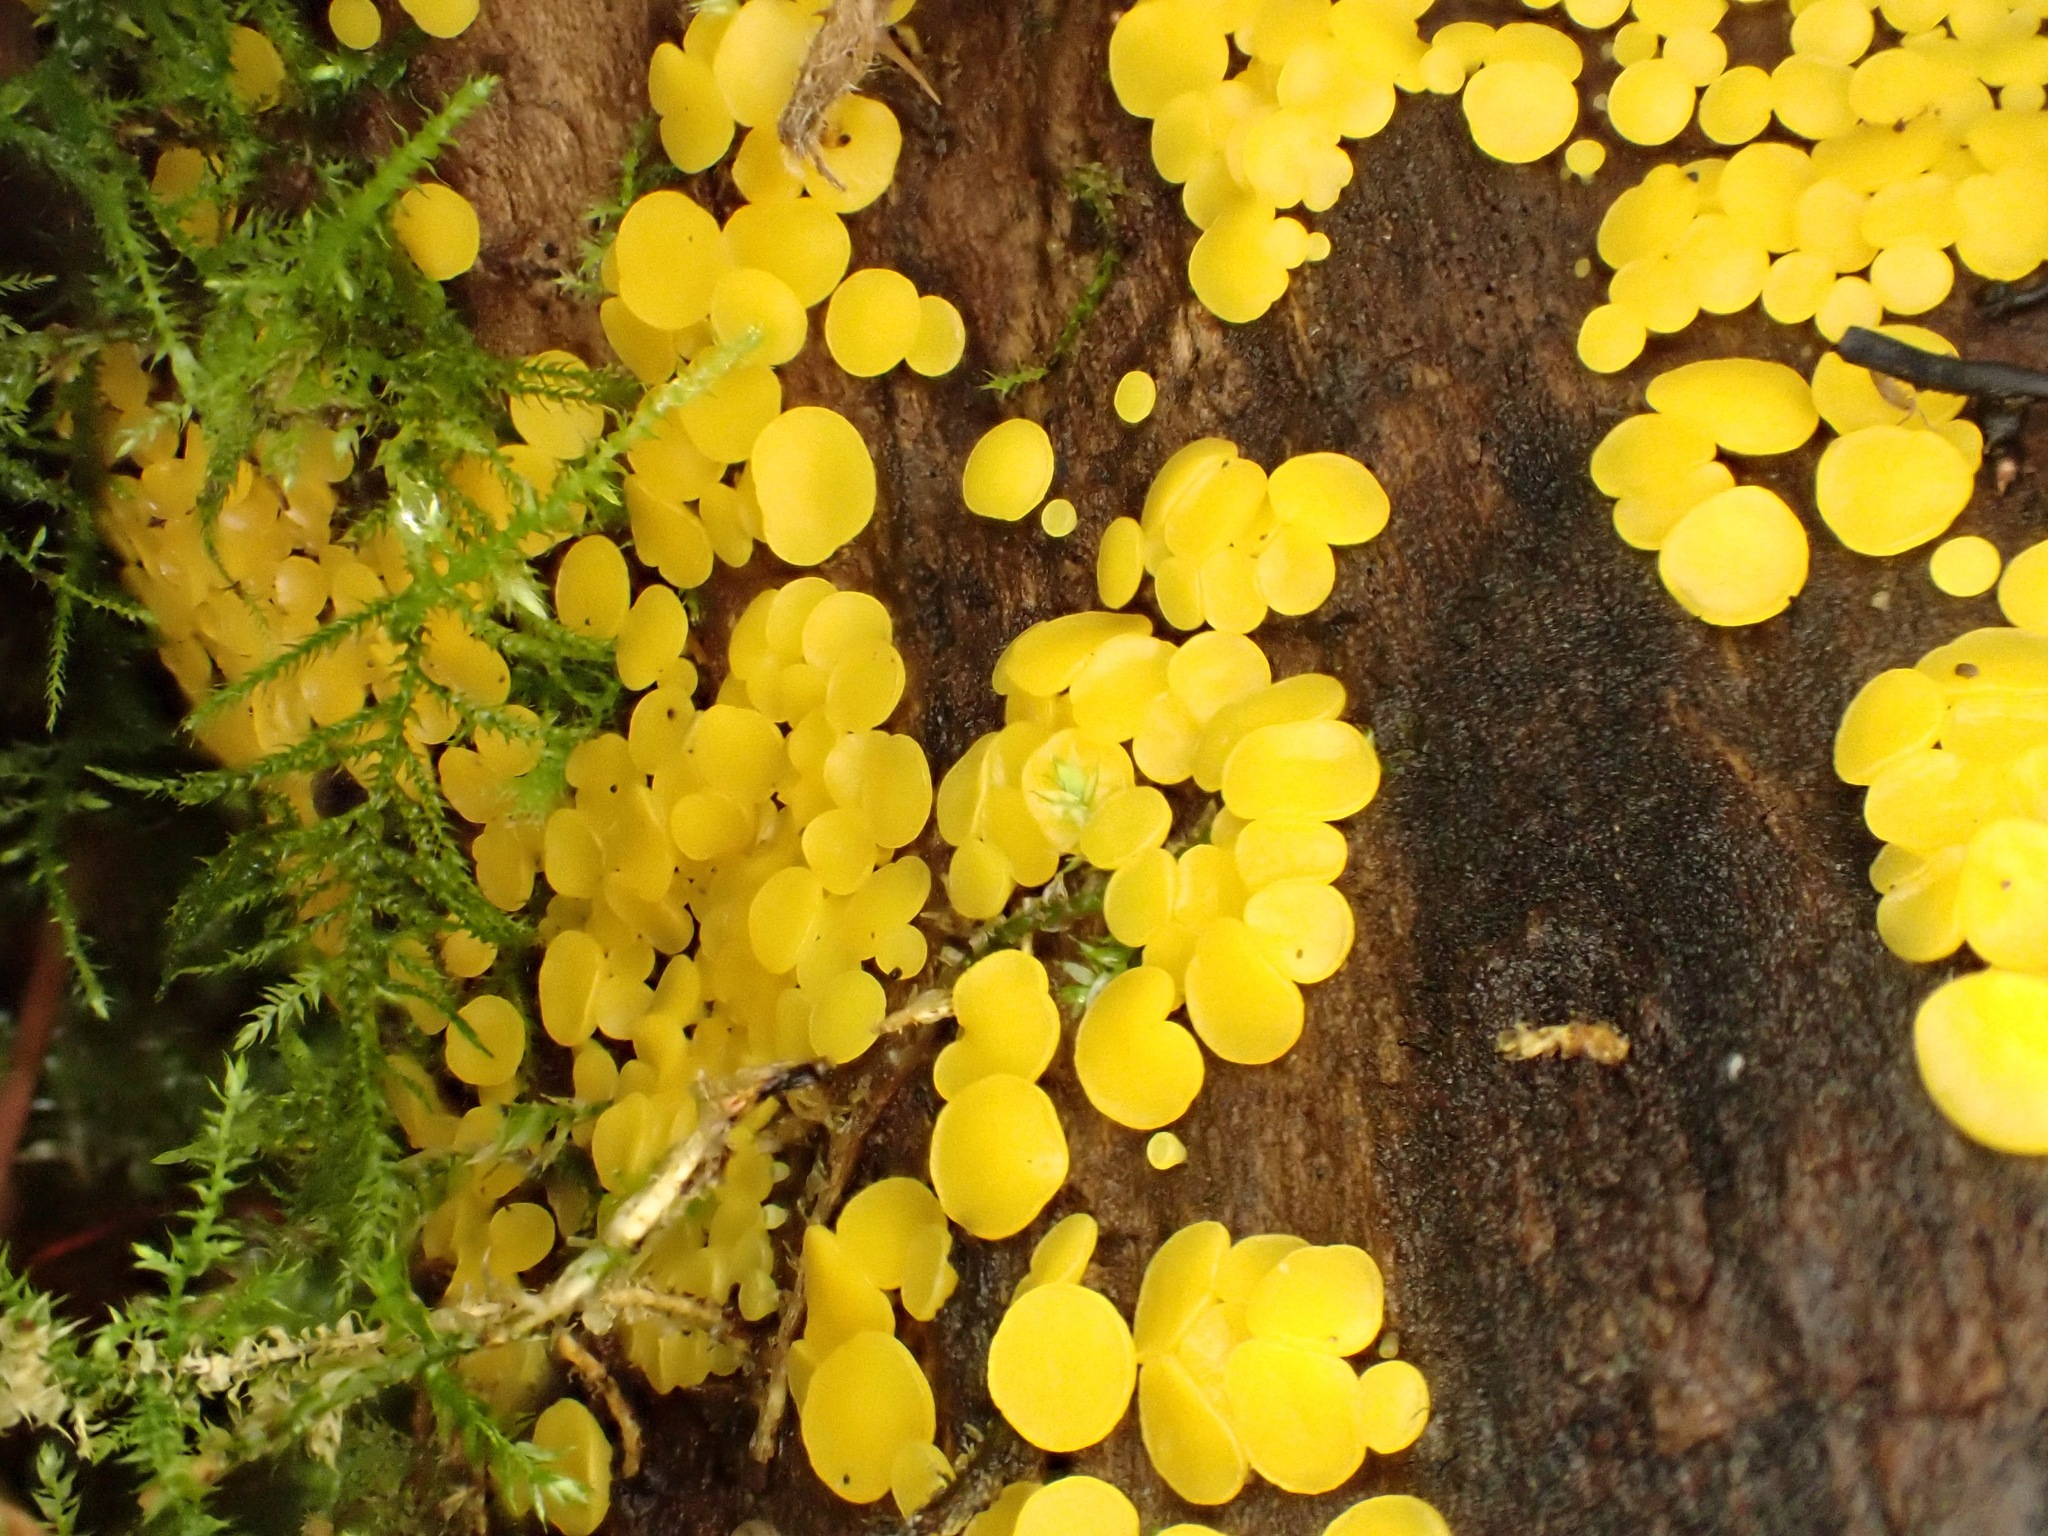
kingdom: Fungi
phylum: Ascomycota
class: Leotiomycetes
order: Helotiales
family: Pezizellaceae
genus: Calycina
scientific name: Calycina citrina
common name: Yellow fairy cups
